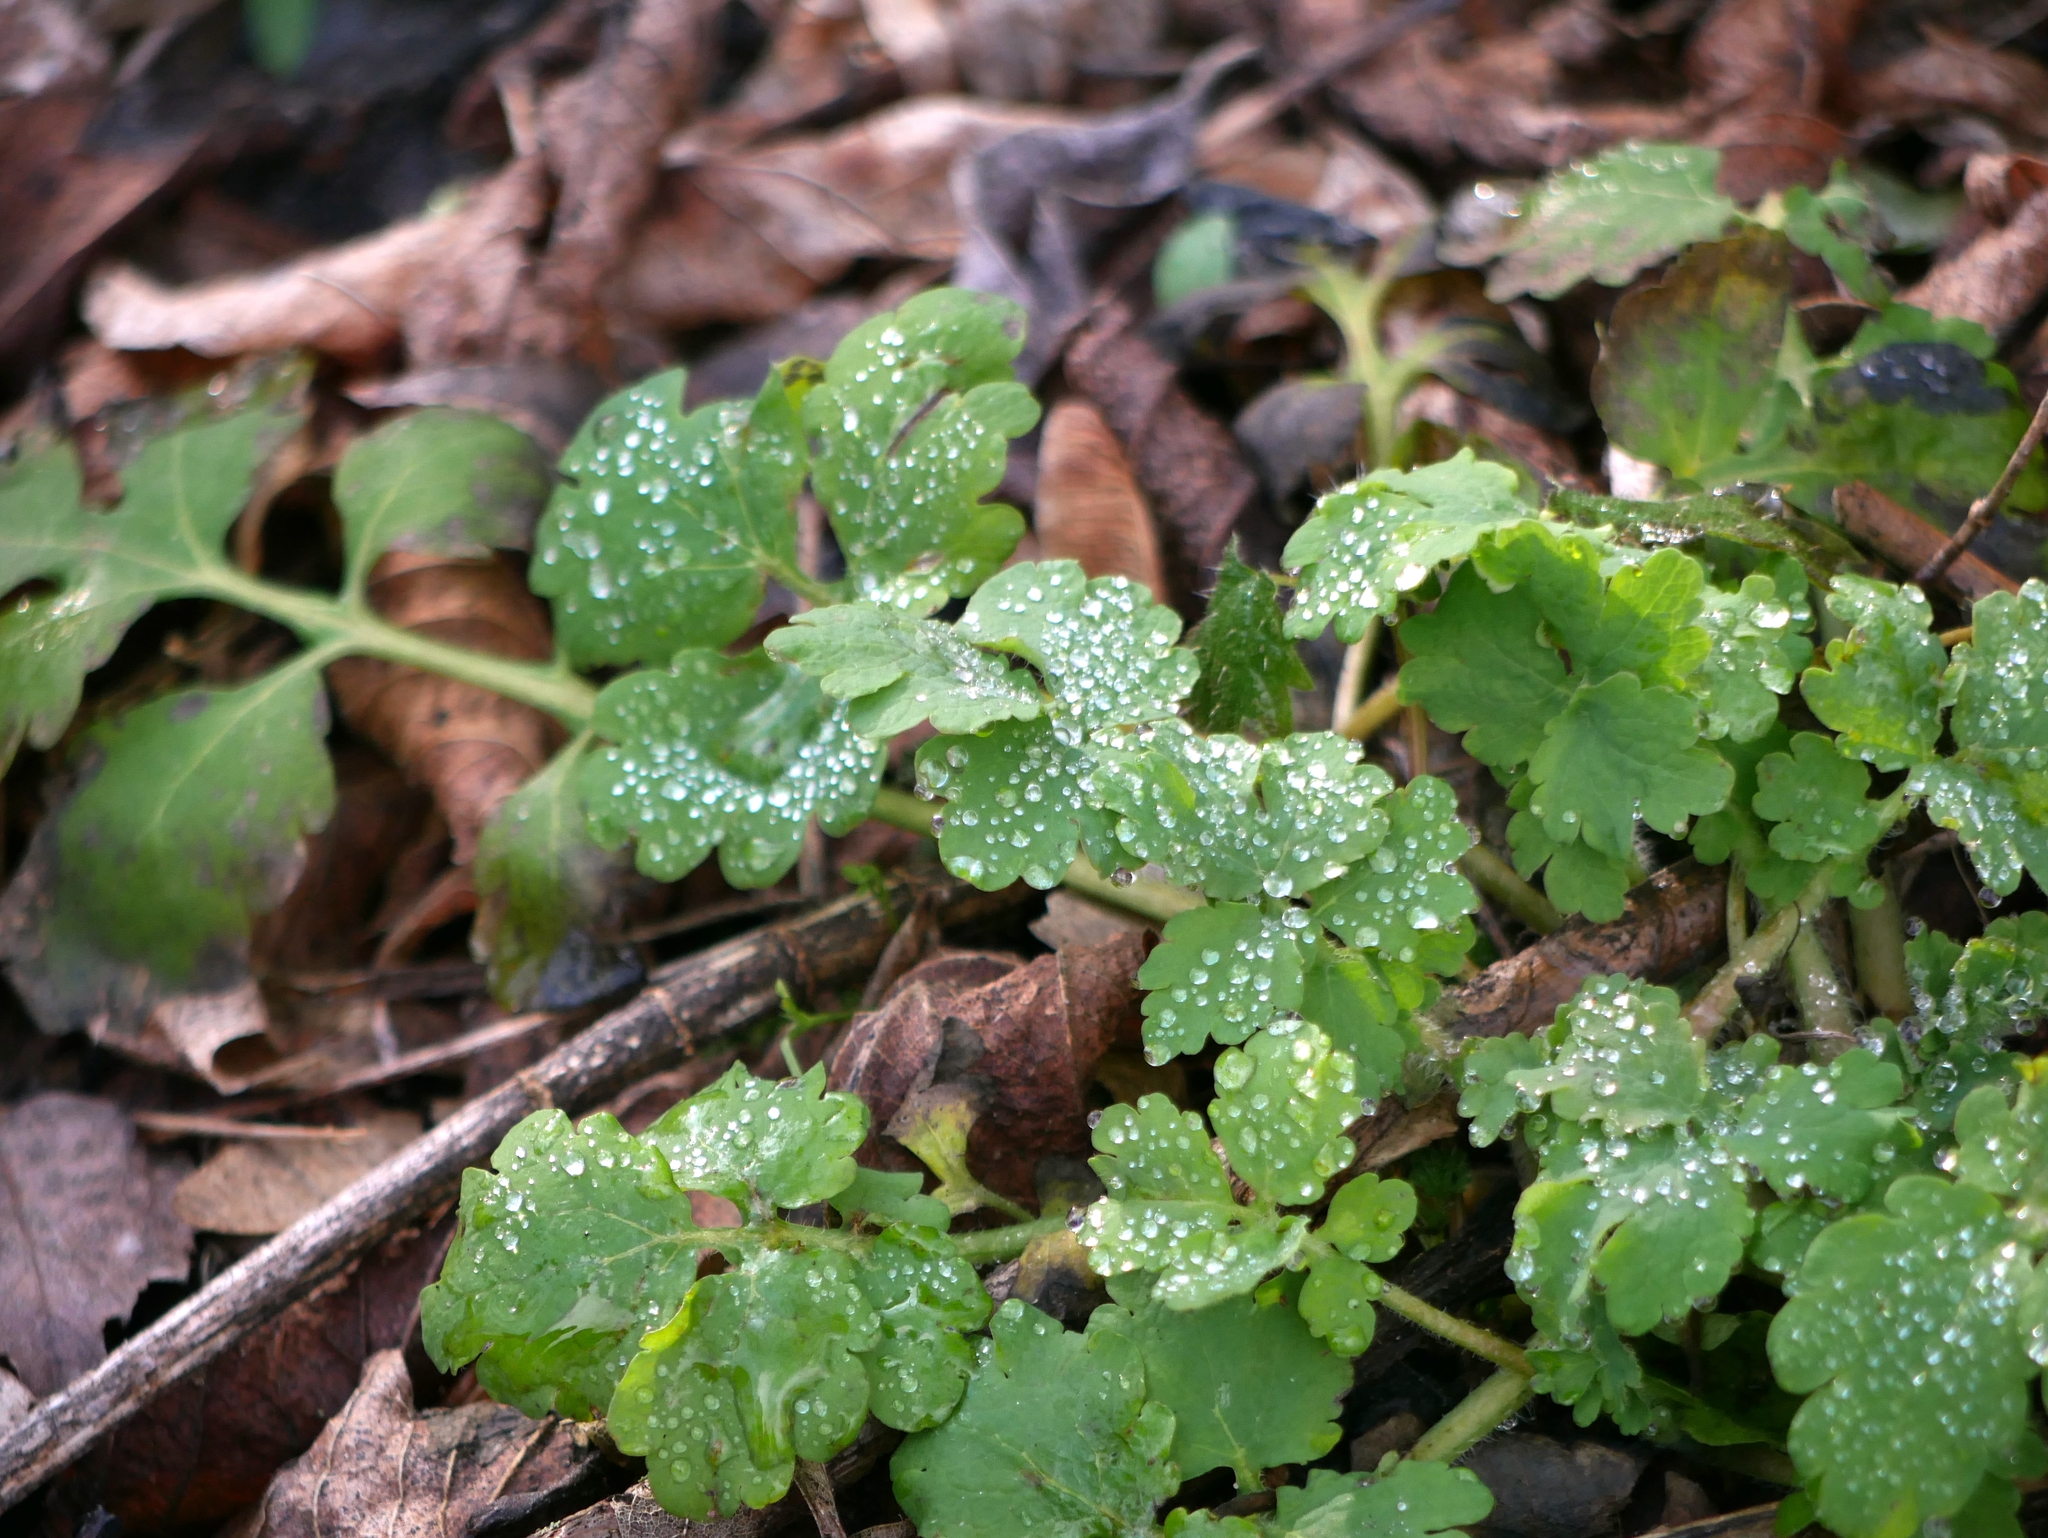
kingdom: Plantae
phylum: Tracheophyta
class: Magnoliopsida
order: Ranunculales
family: Papaveraceae
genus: Chelidonium
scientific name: Chelidonium majus
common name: Greater celandine
